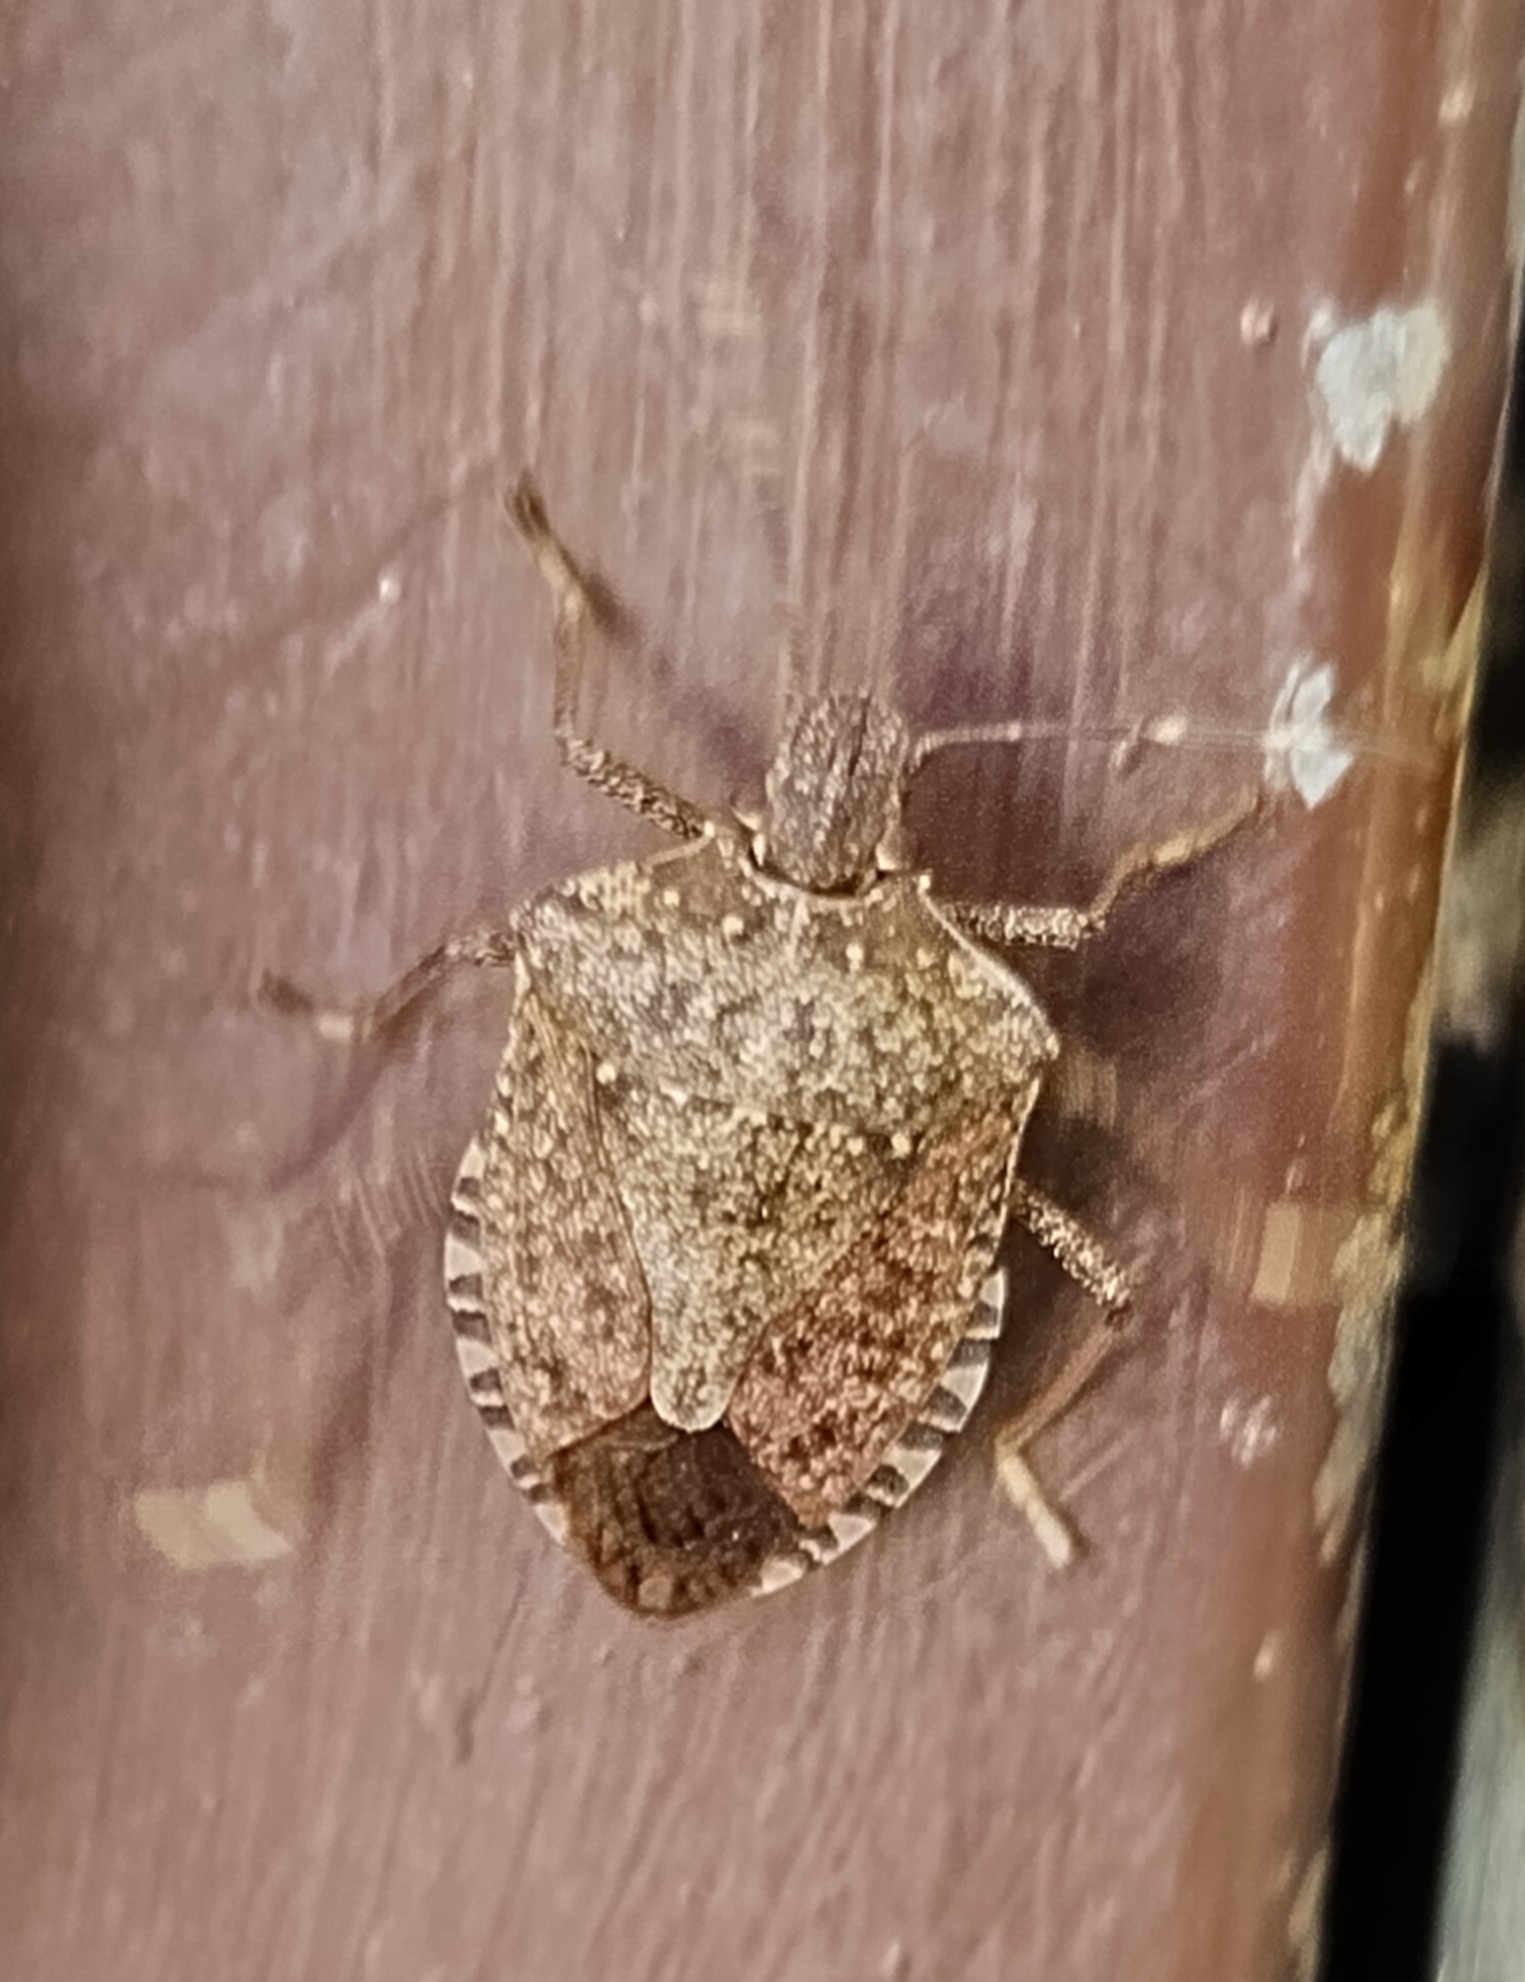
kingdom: Animalia
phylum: Arthropoda
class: Insecta
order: Hemiptera
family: Pentatomidae
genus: Halyomorpha
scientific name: Halyomorpha halys
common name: Brown marmorated stink bug
